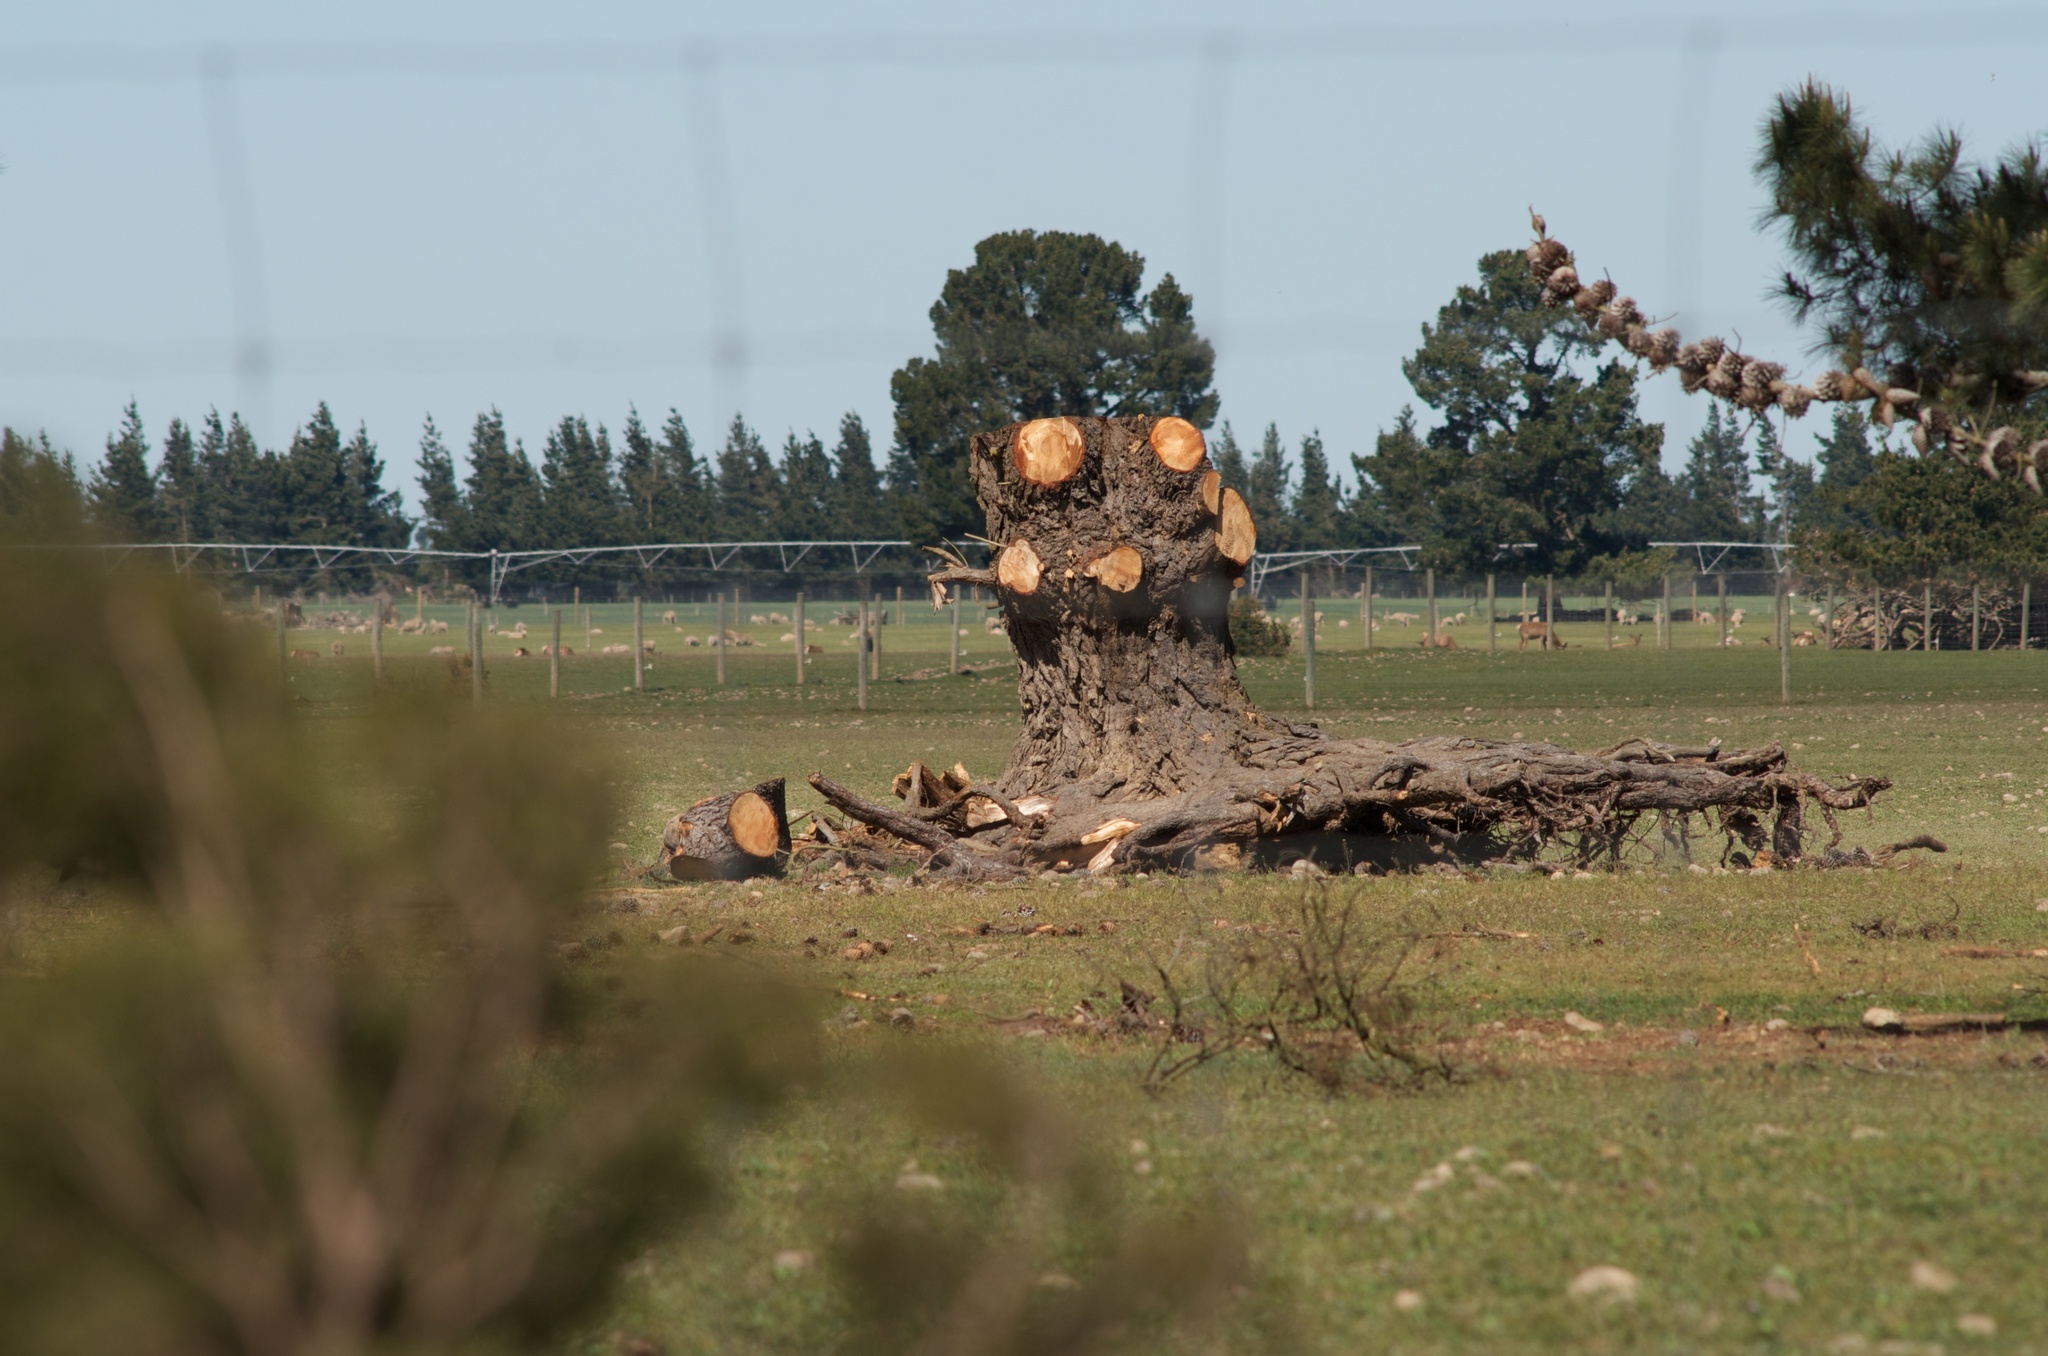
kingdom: Plantae
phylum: Tracheophyta
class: Pinopsida
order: Pinales
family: Pinaceae
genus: Pinus
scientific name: Pinus radiata
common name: Monterey pine
